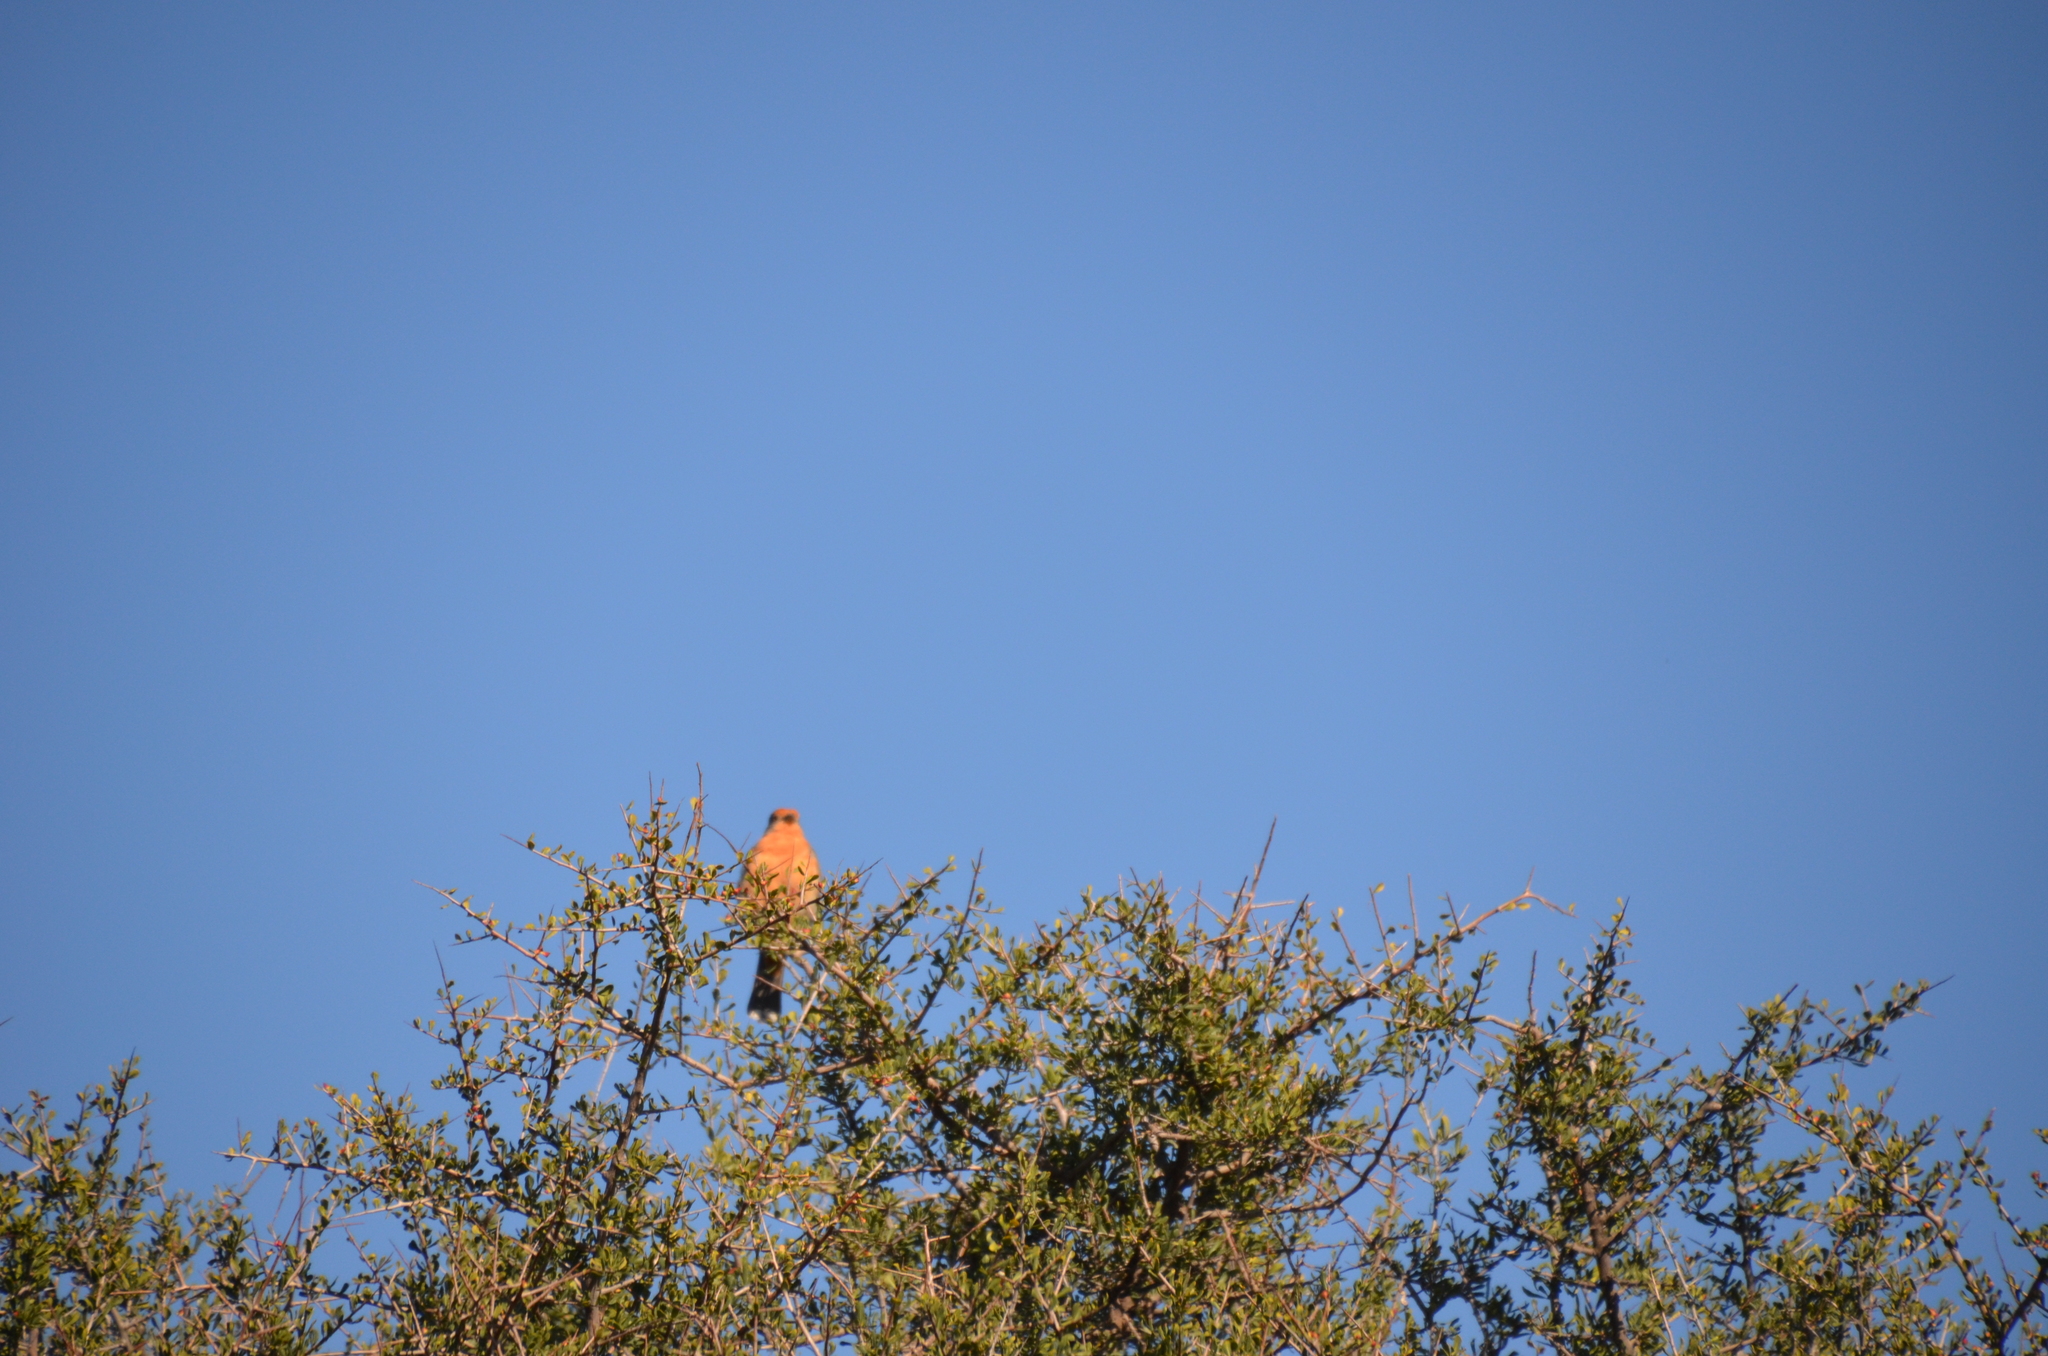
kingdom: Animalia
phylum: Chordata
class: Aves
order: Passeriformes
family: Cotingidae
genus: Phytotoma
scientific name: Phytotoma rutila
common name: White-tipped plantcutter
